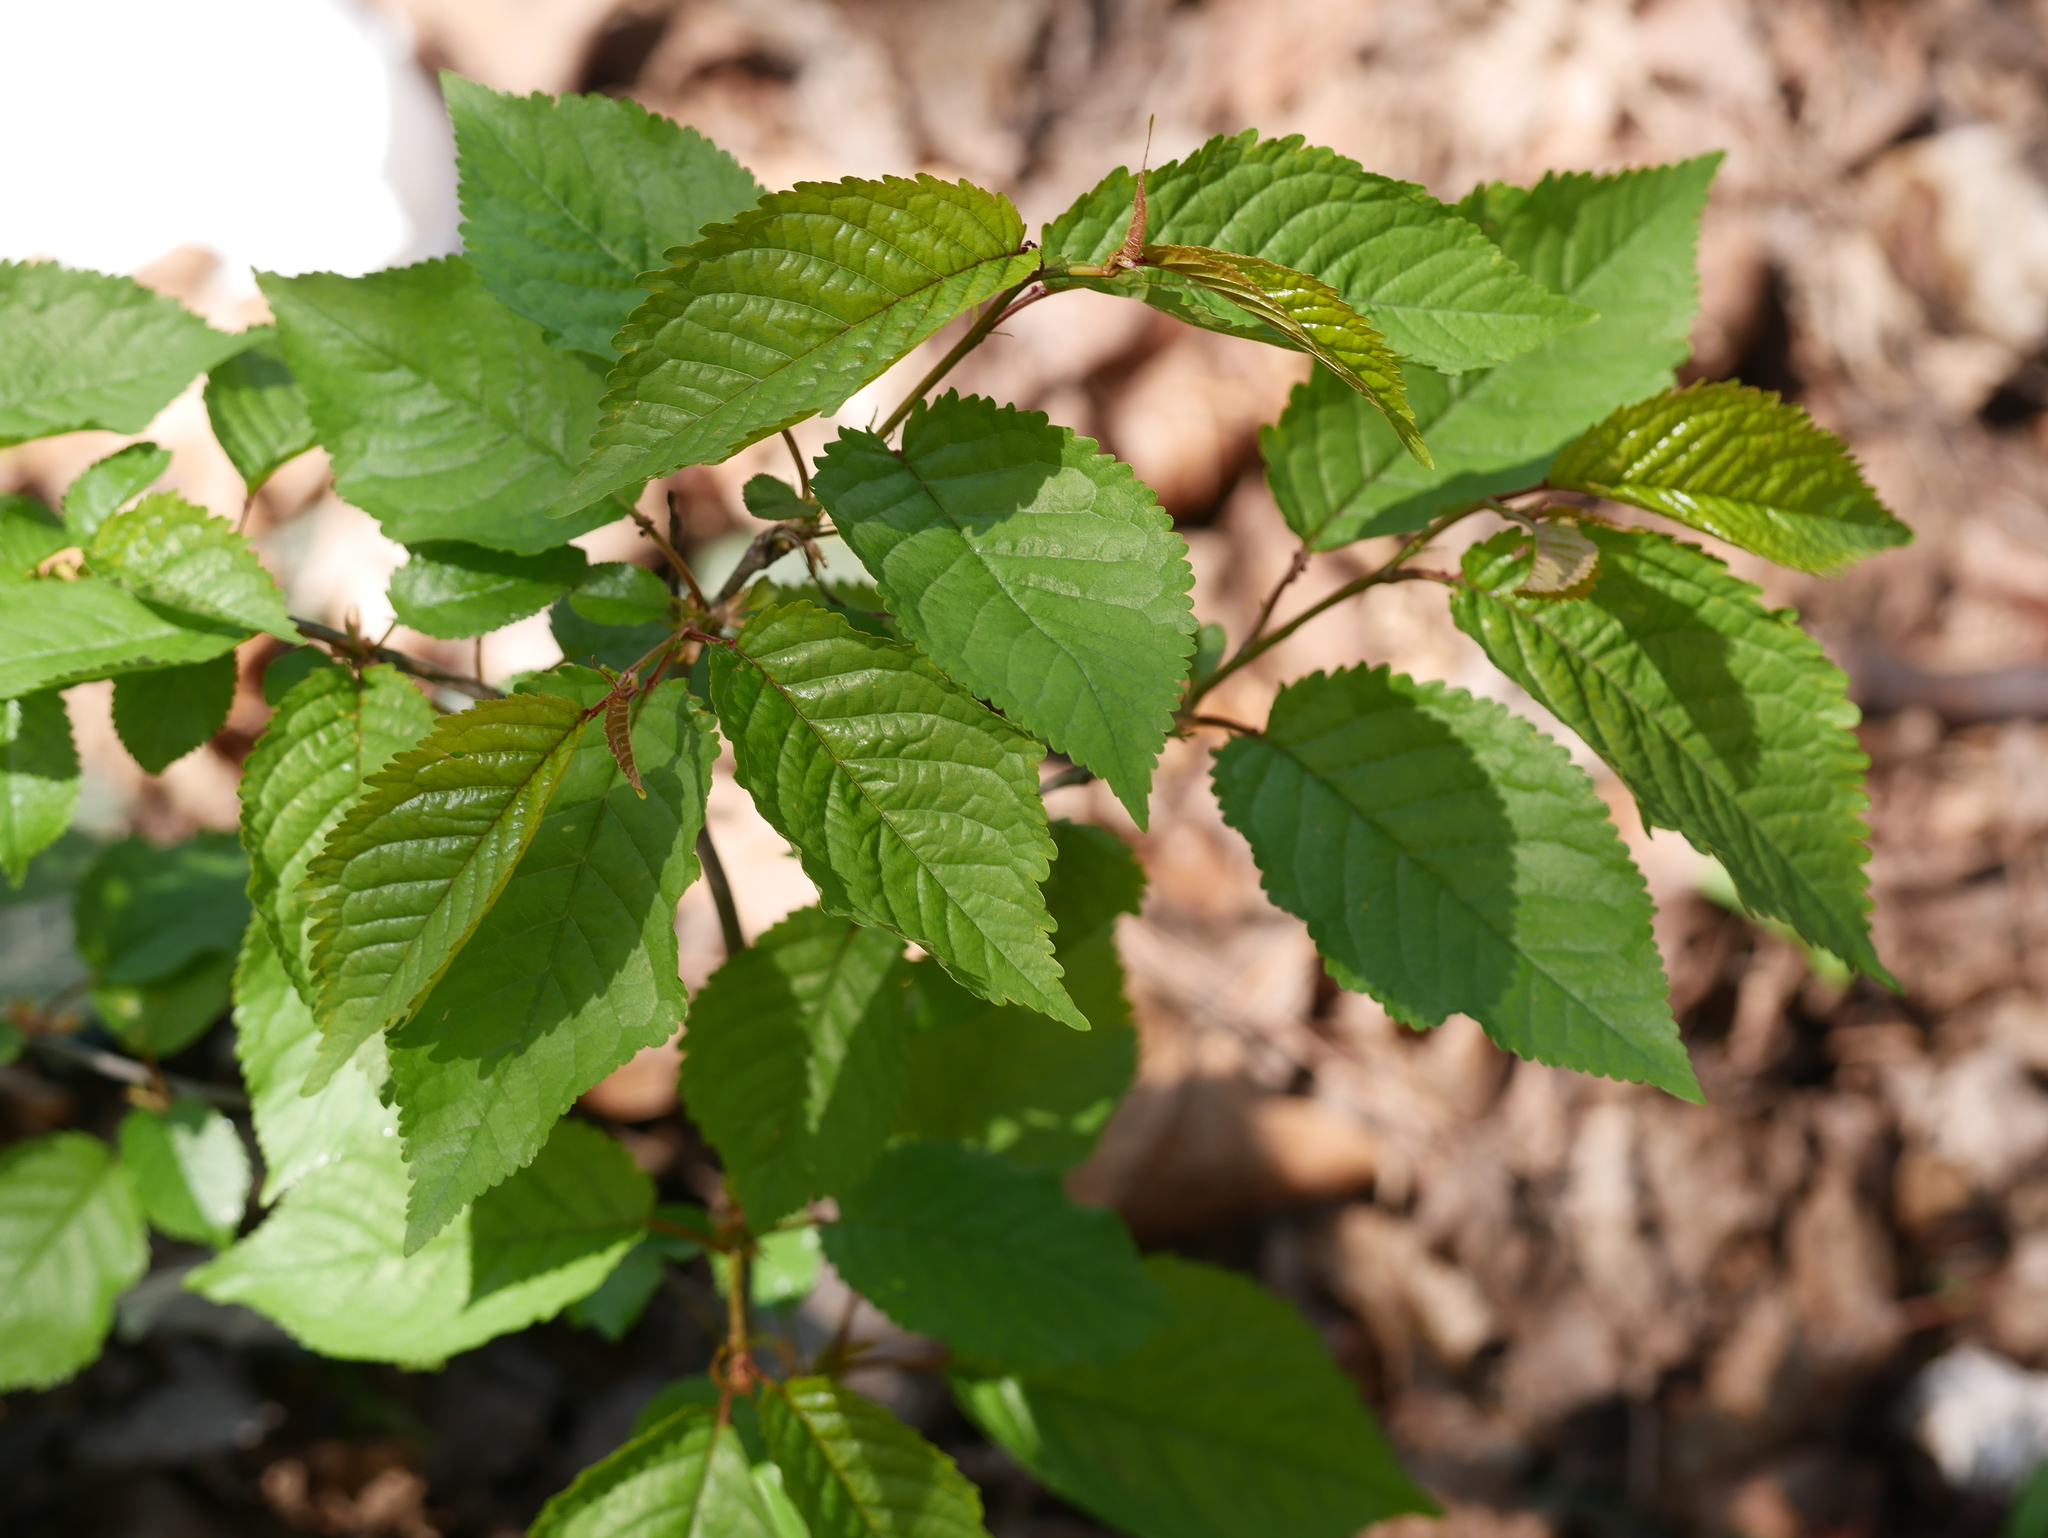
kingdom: Plantae
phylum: Tracheophyta
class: Magnoliopsida
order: Rosales
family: Rosaceae
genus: Prunus
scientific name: Prunus avium
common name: Sweet cherry
